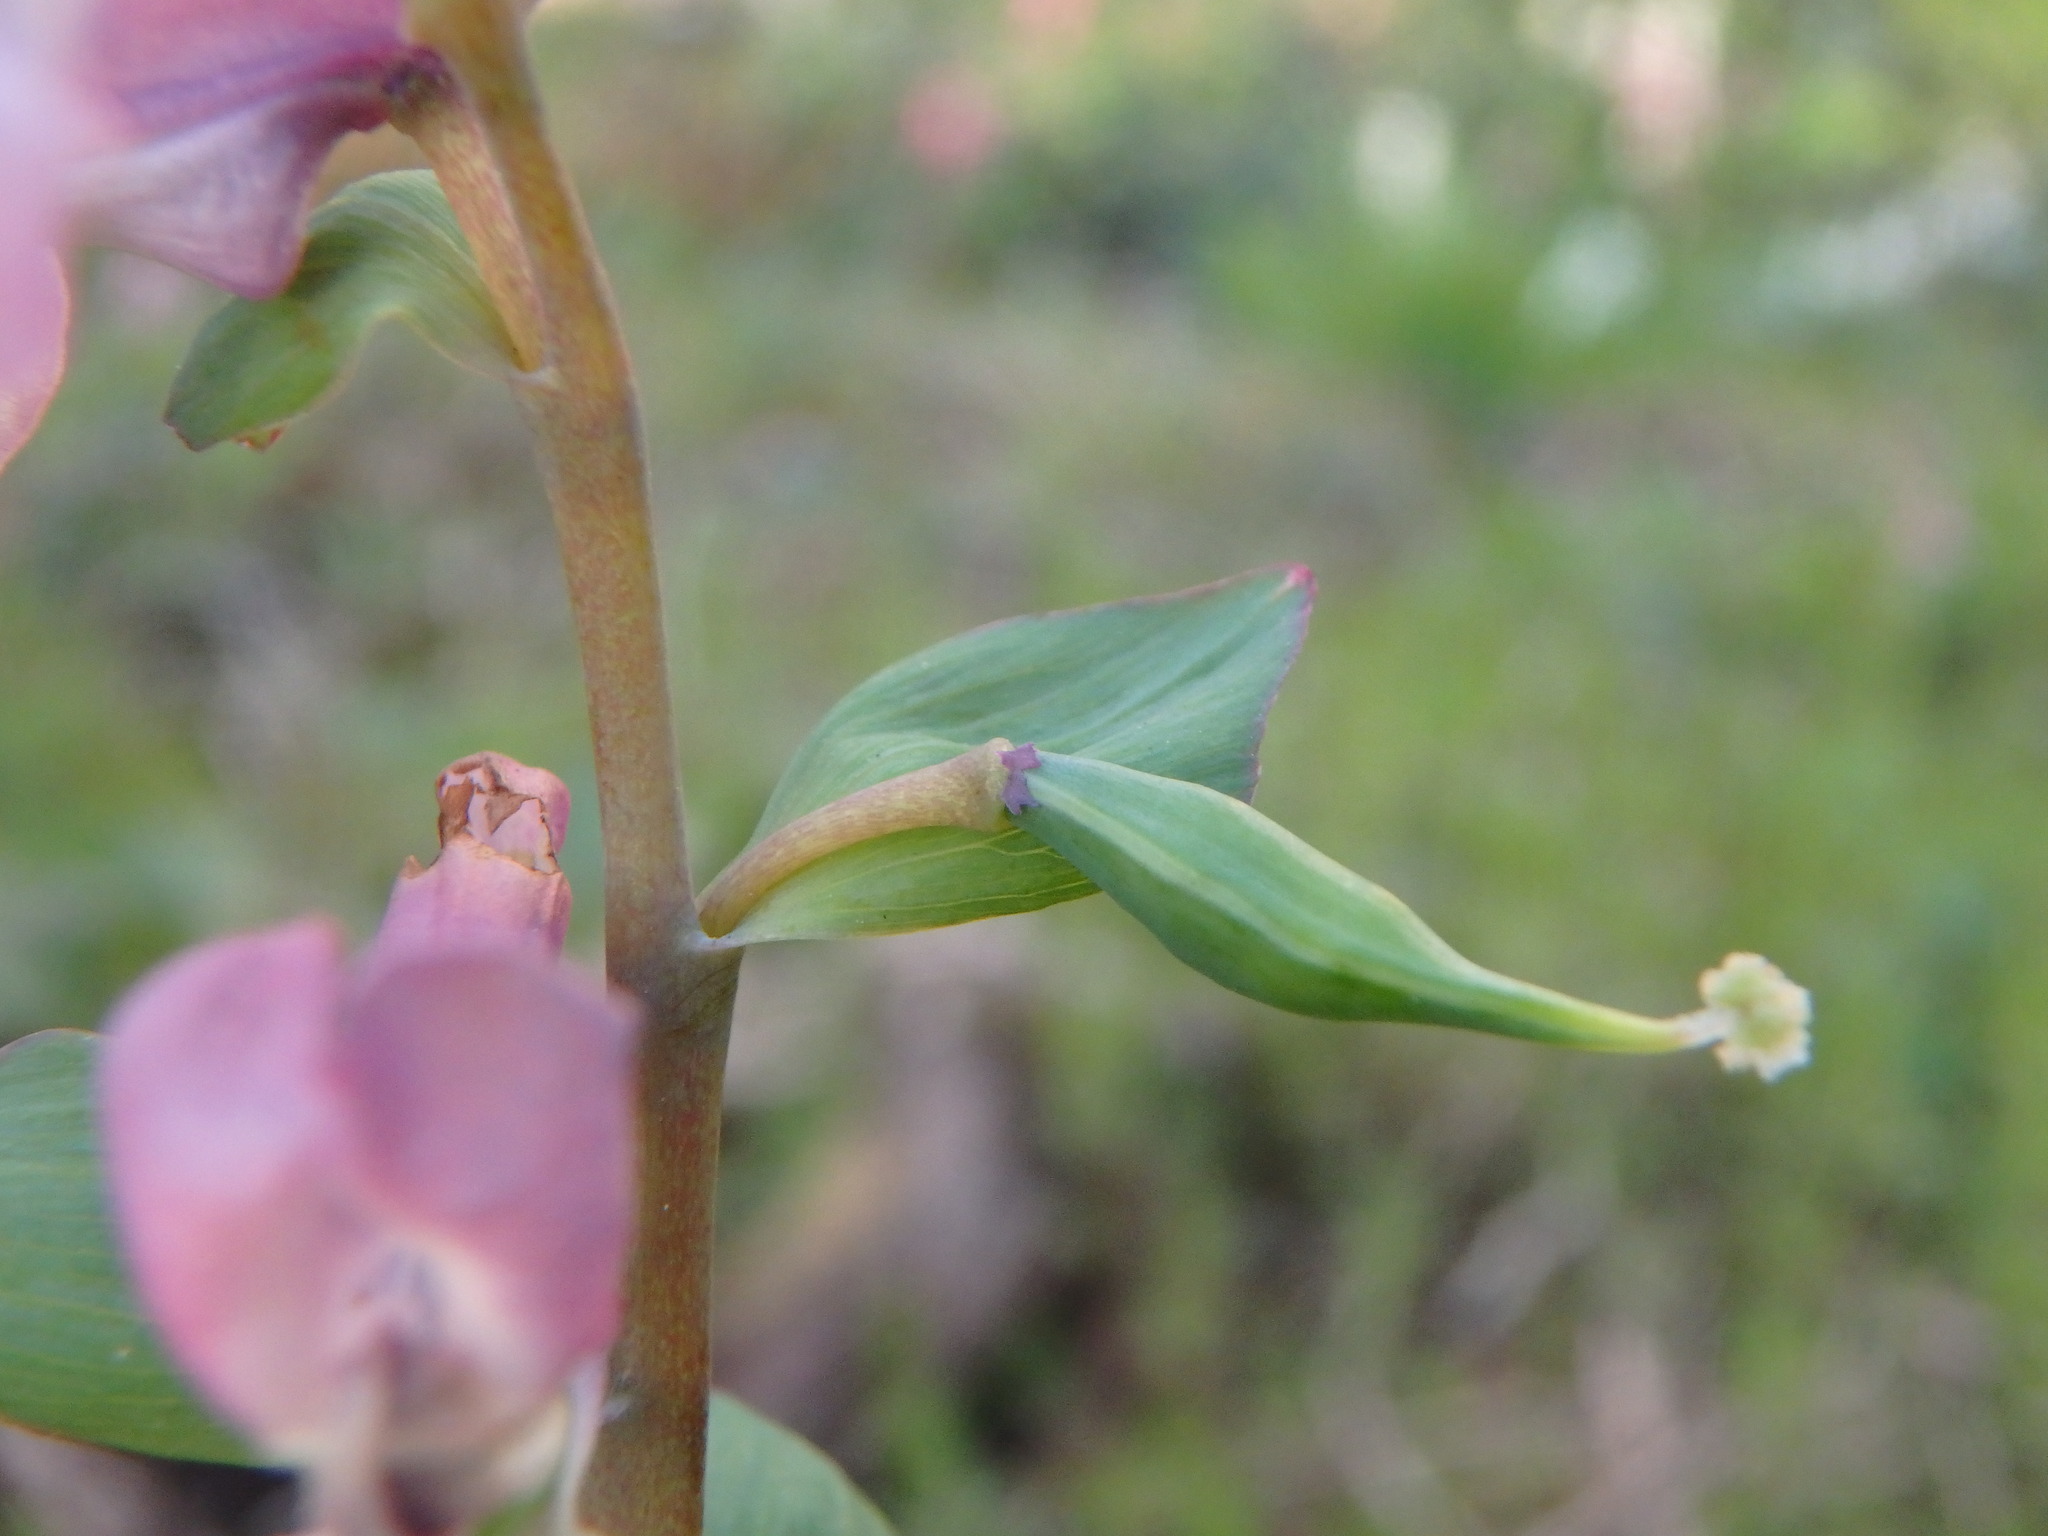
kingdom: Plantae
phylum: Tracheophyta
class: Magnoliopsida
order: Ranunculales
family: Papaveraceae
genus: Corydalis
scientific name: Corydalis cava
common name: Hollowroot
